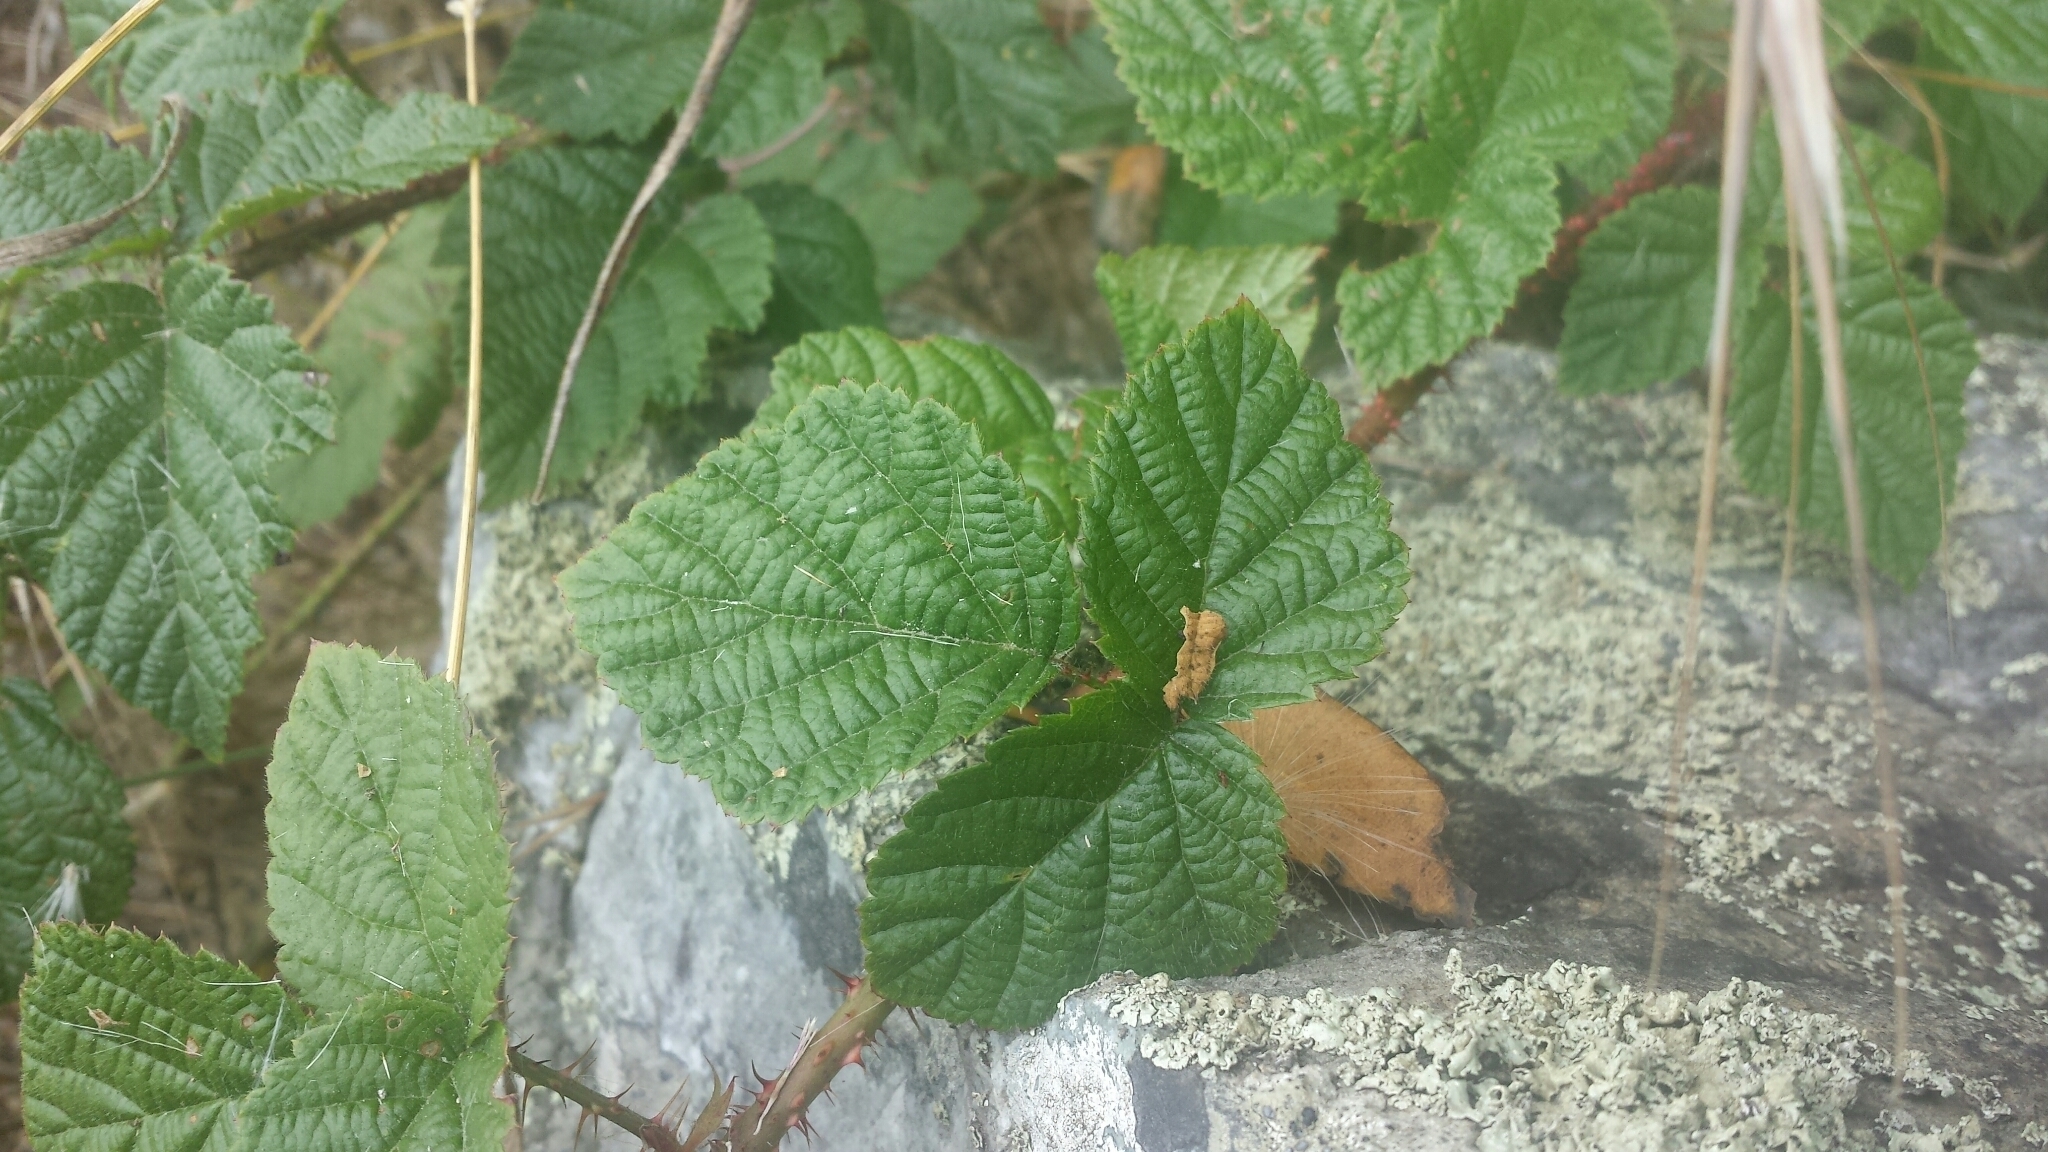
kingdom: Plantae
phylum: Tracheophyta
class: Magnoliopsida
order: Rosales
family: Rosaceae
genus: Rubus
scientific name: Rubus ursinus
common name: Pacific blackberry
